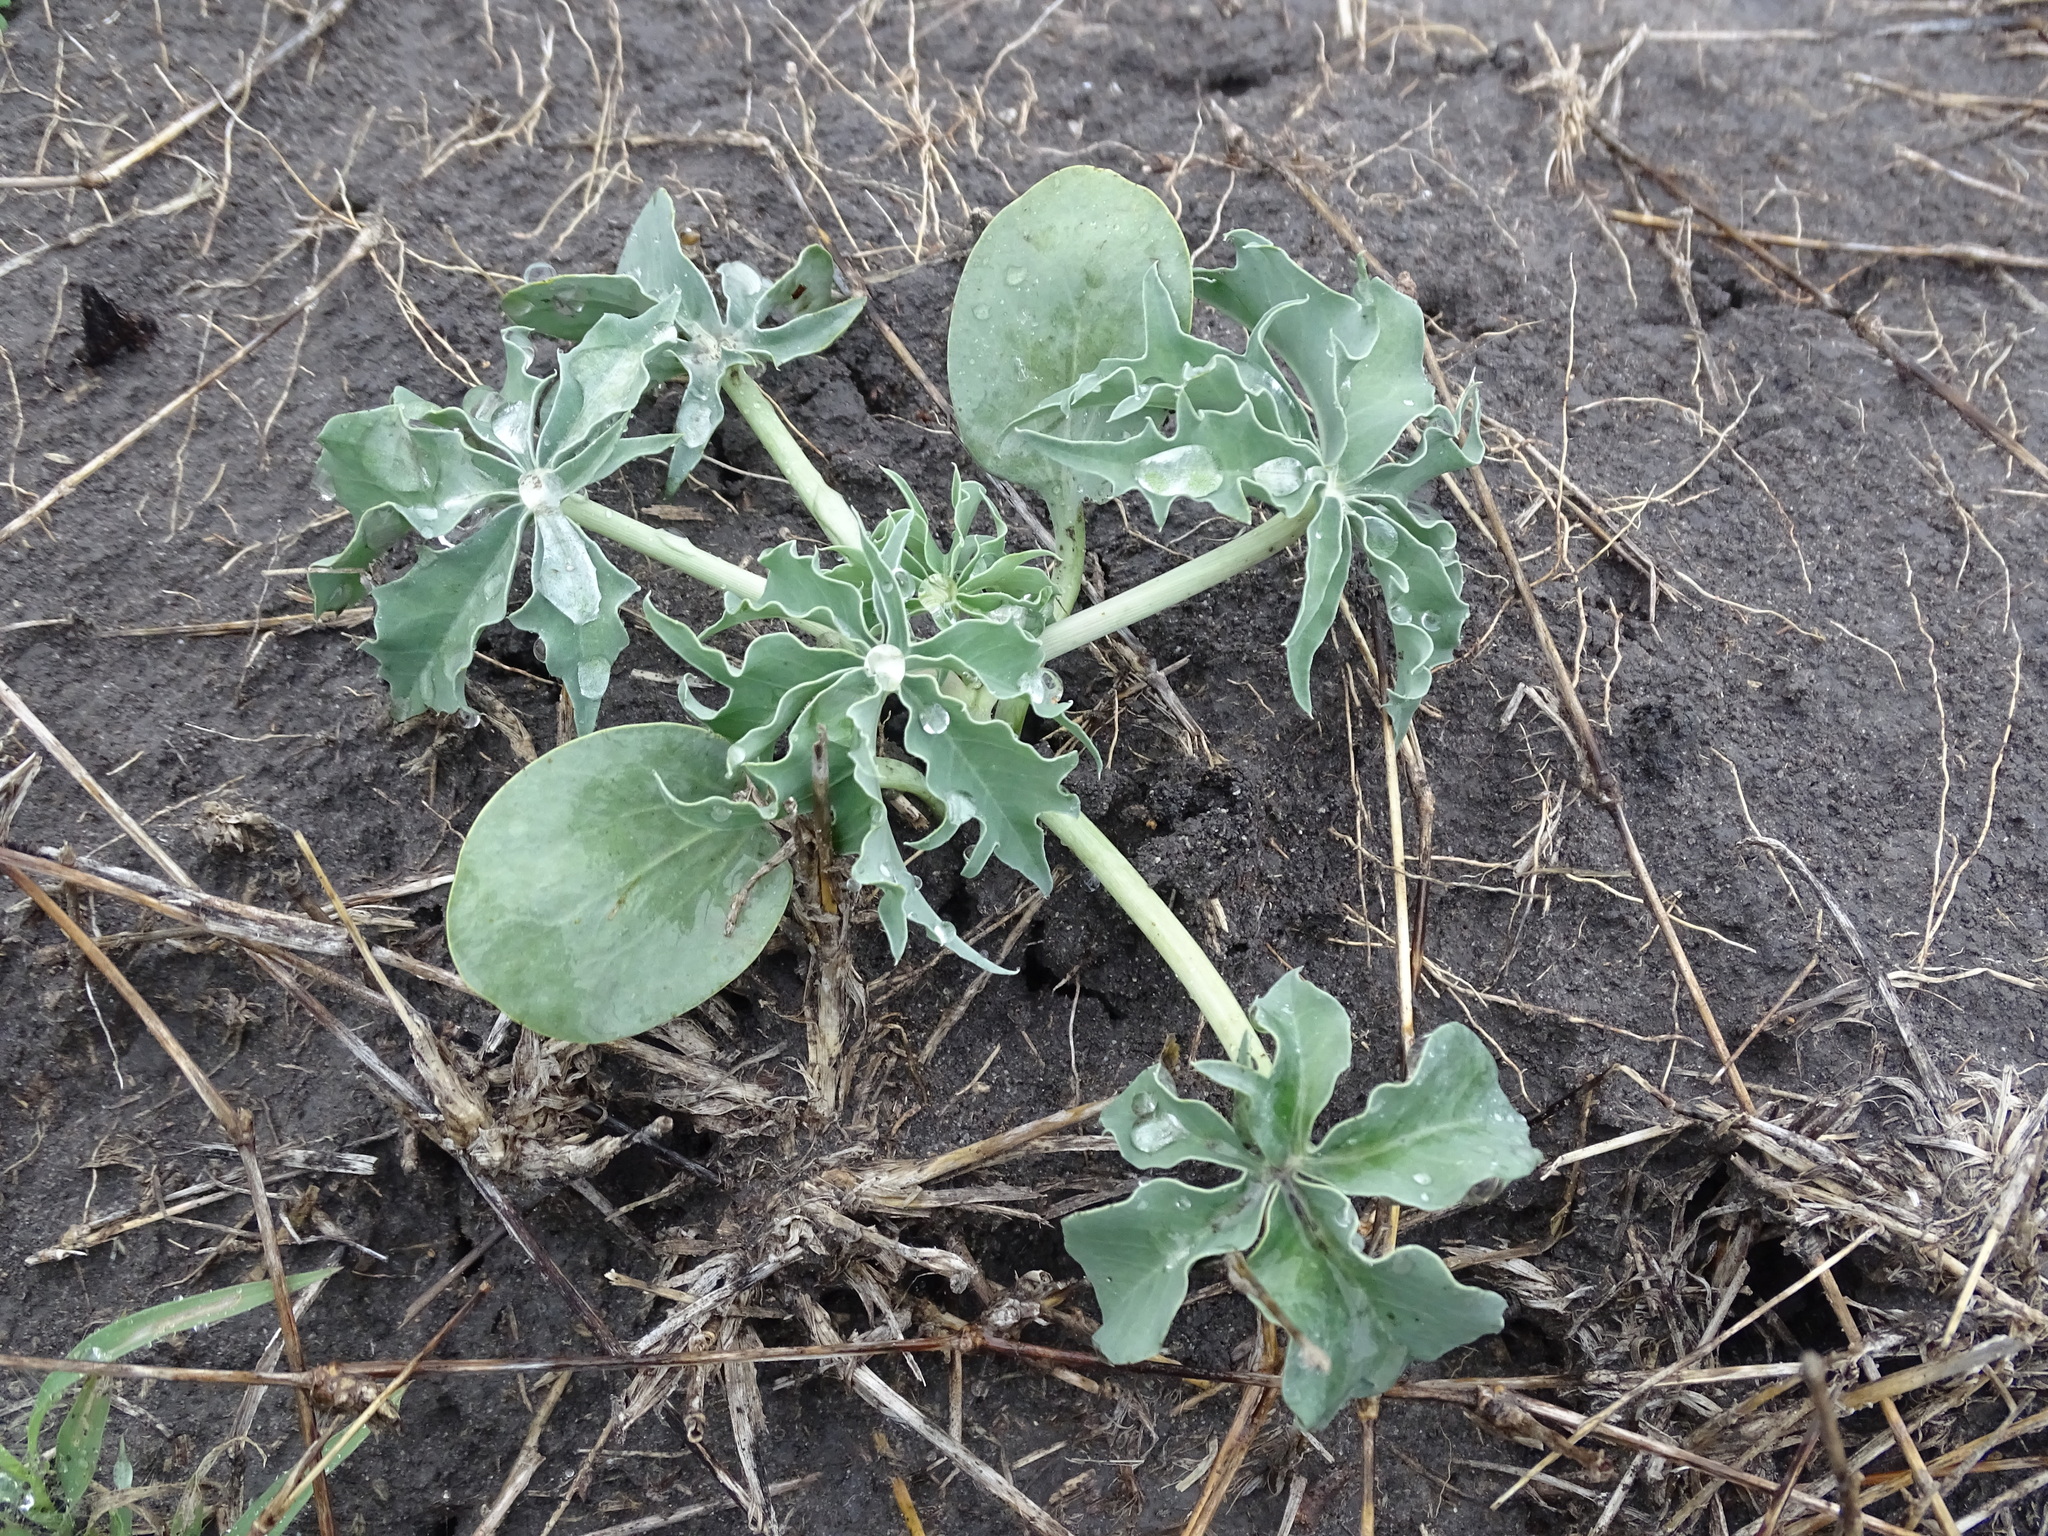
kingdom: Plantae
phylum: Tracheophyta
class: Magnoliopsida
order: Malpighiales
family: Euphorbiaceae
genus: Jatropha
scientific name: Jatropha cathartica
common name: Berlander's nettlespurge
